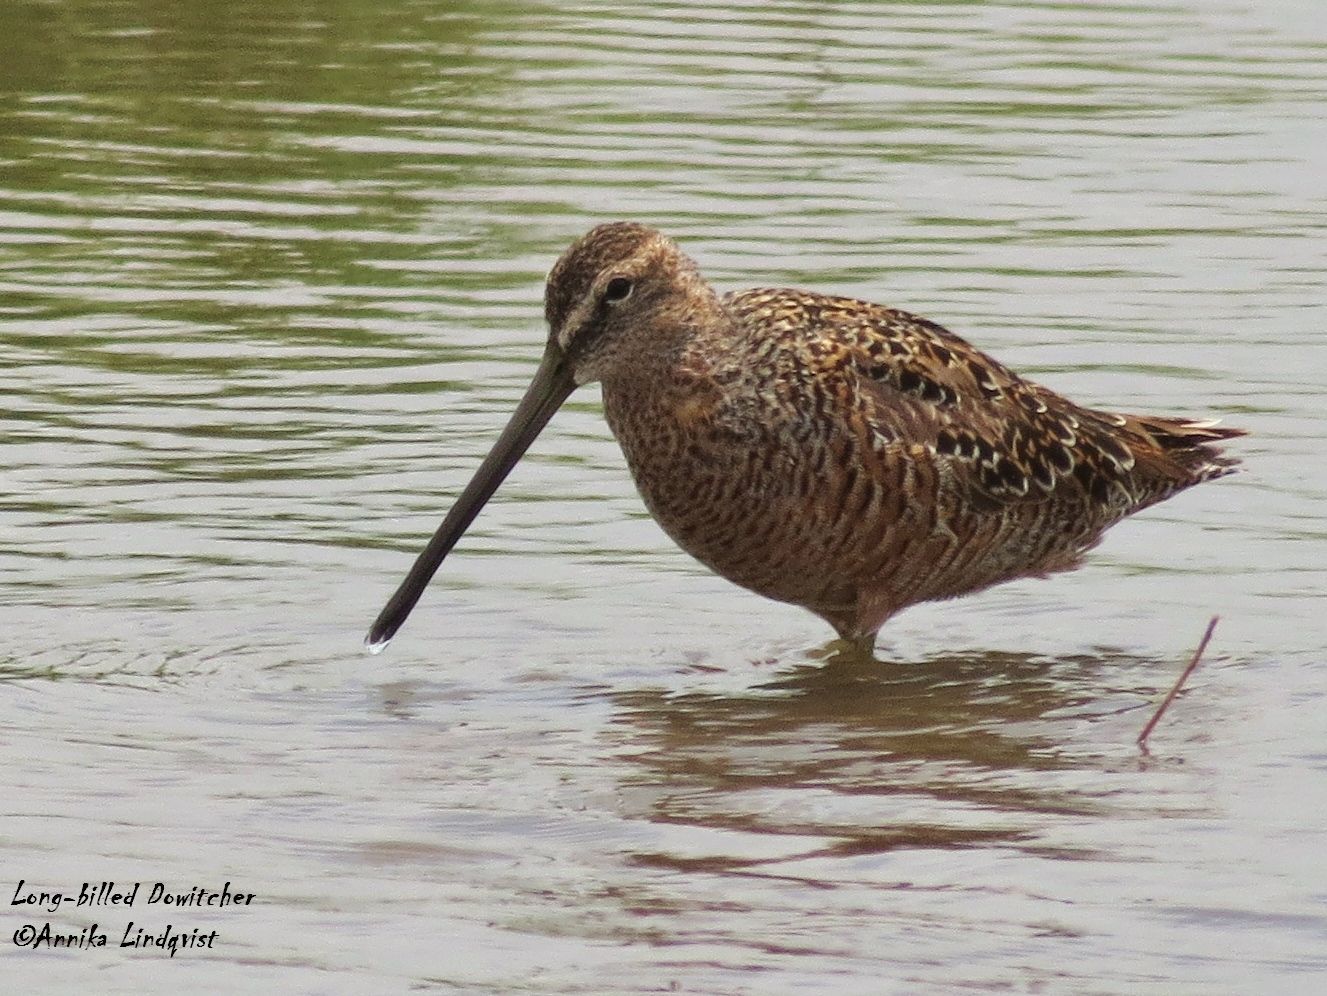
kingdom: Animalia
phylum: Chordata
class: Aves
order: Charadriiformes
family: Scolopacidae
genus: Limnodromus
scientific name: Limnodromus scolopaceus
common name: Long-billed dowitcher
